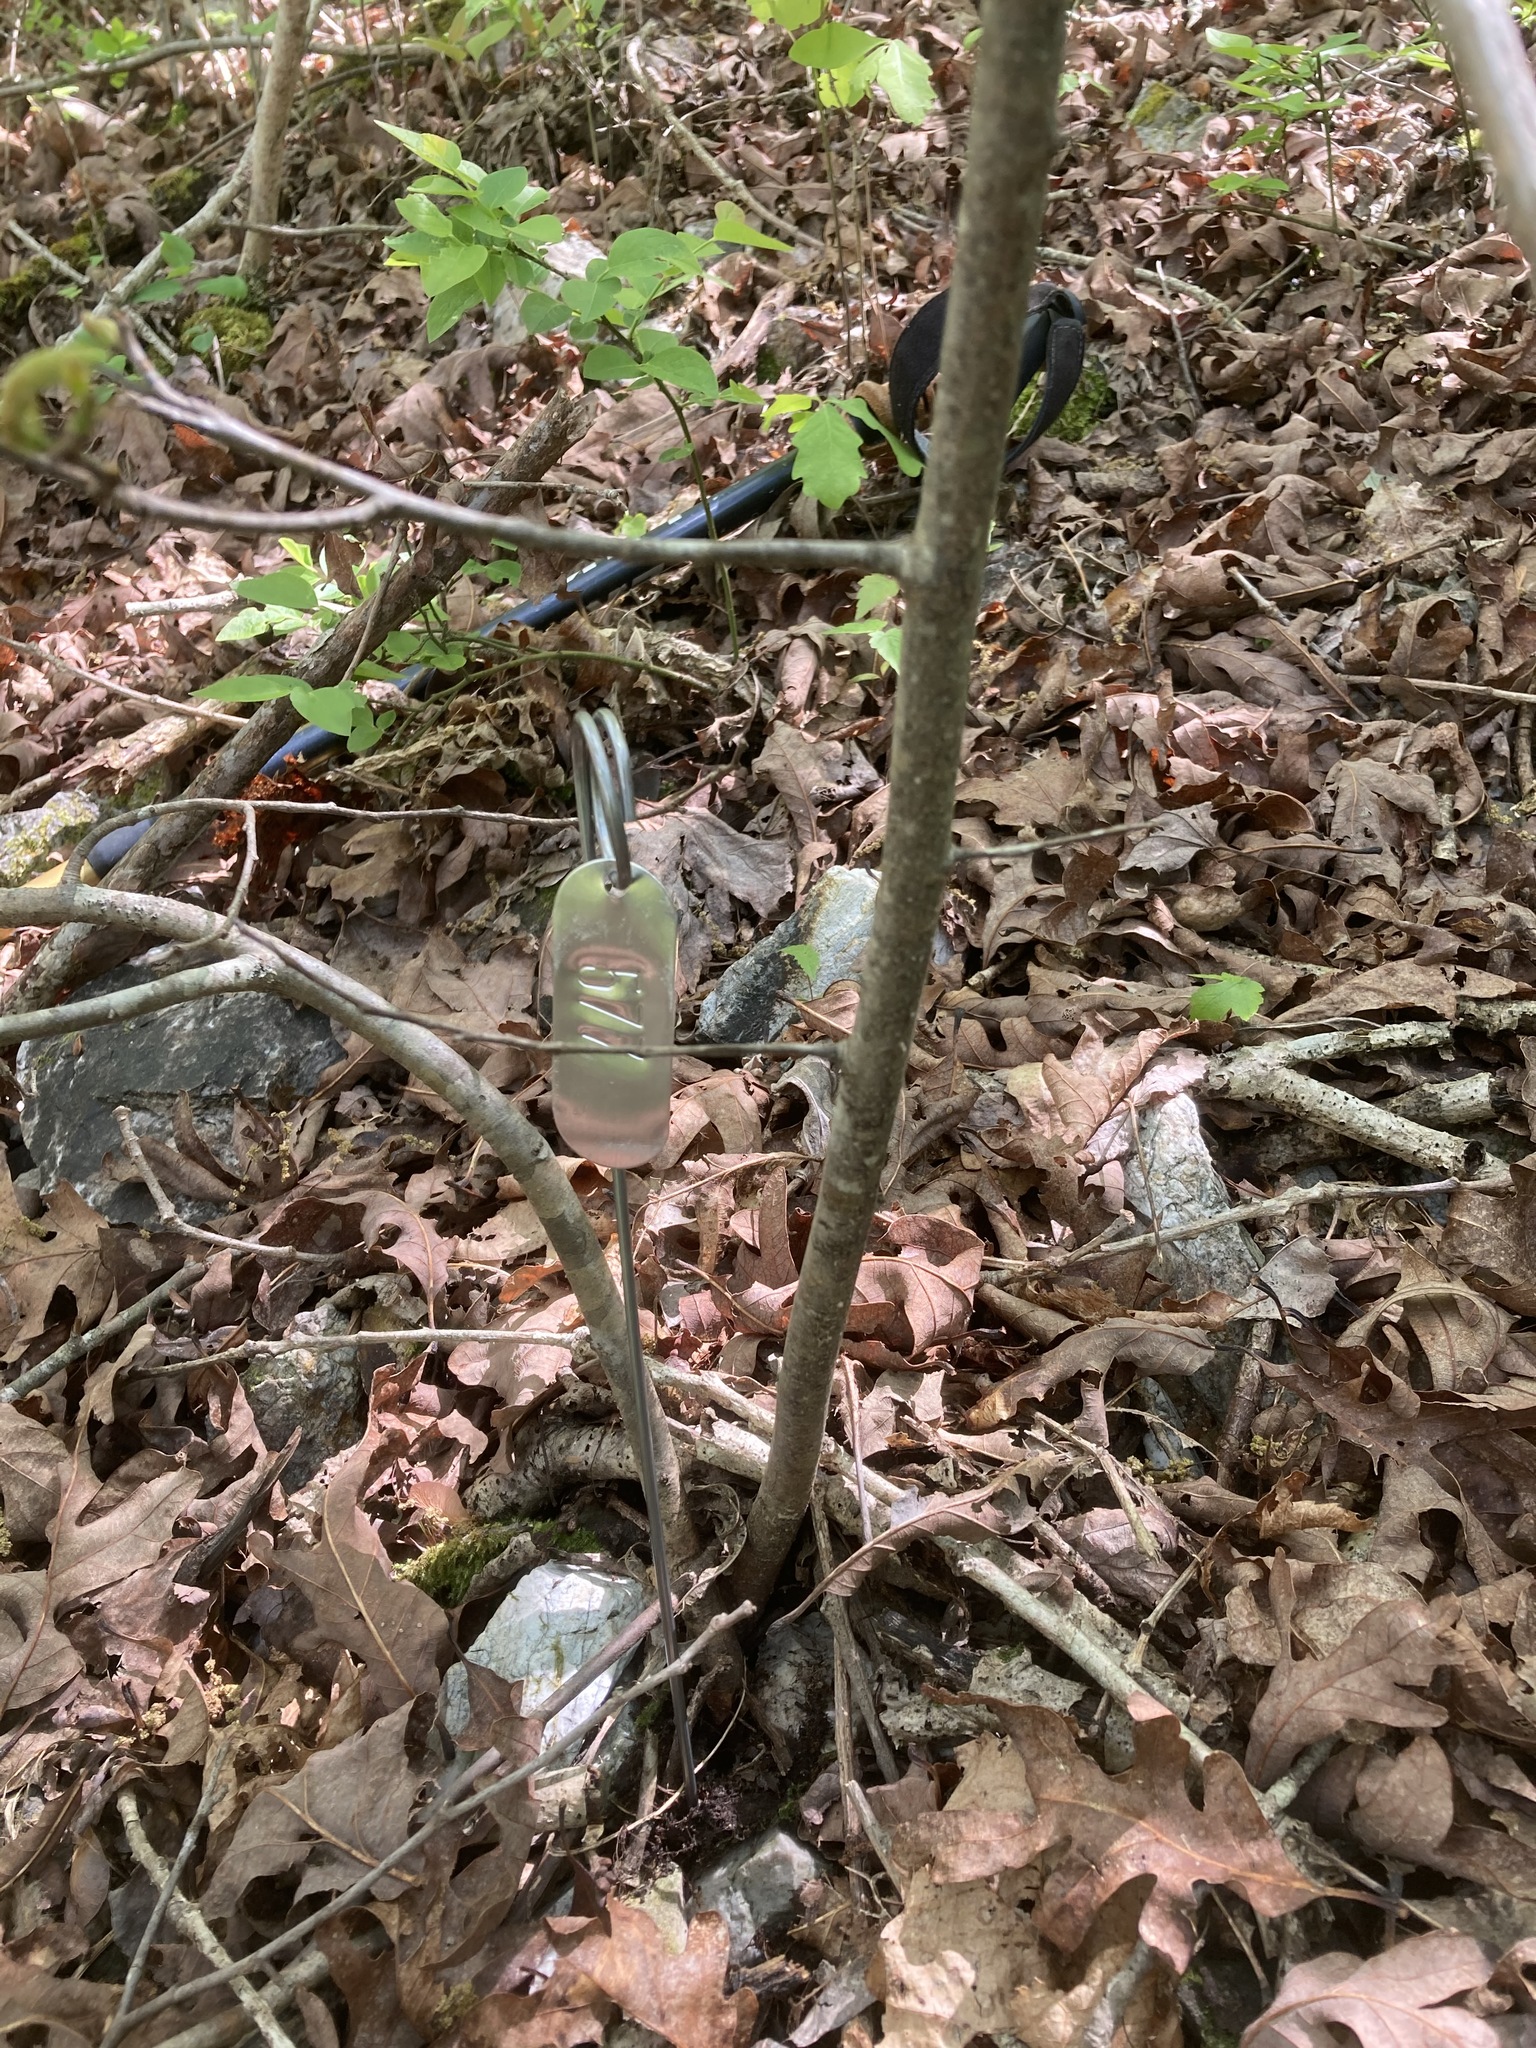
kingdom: Plantae
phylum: Tracheophyta
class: Magnoliopsida
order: Fagales
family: Fagaceae
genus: Castanea
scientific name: Castanea ozarkensis
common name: Ozark chinkapin
